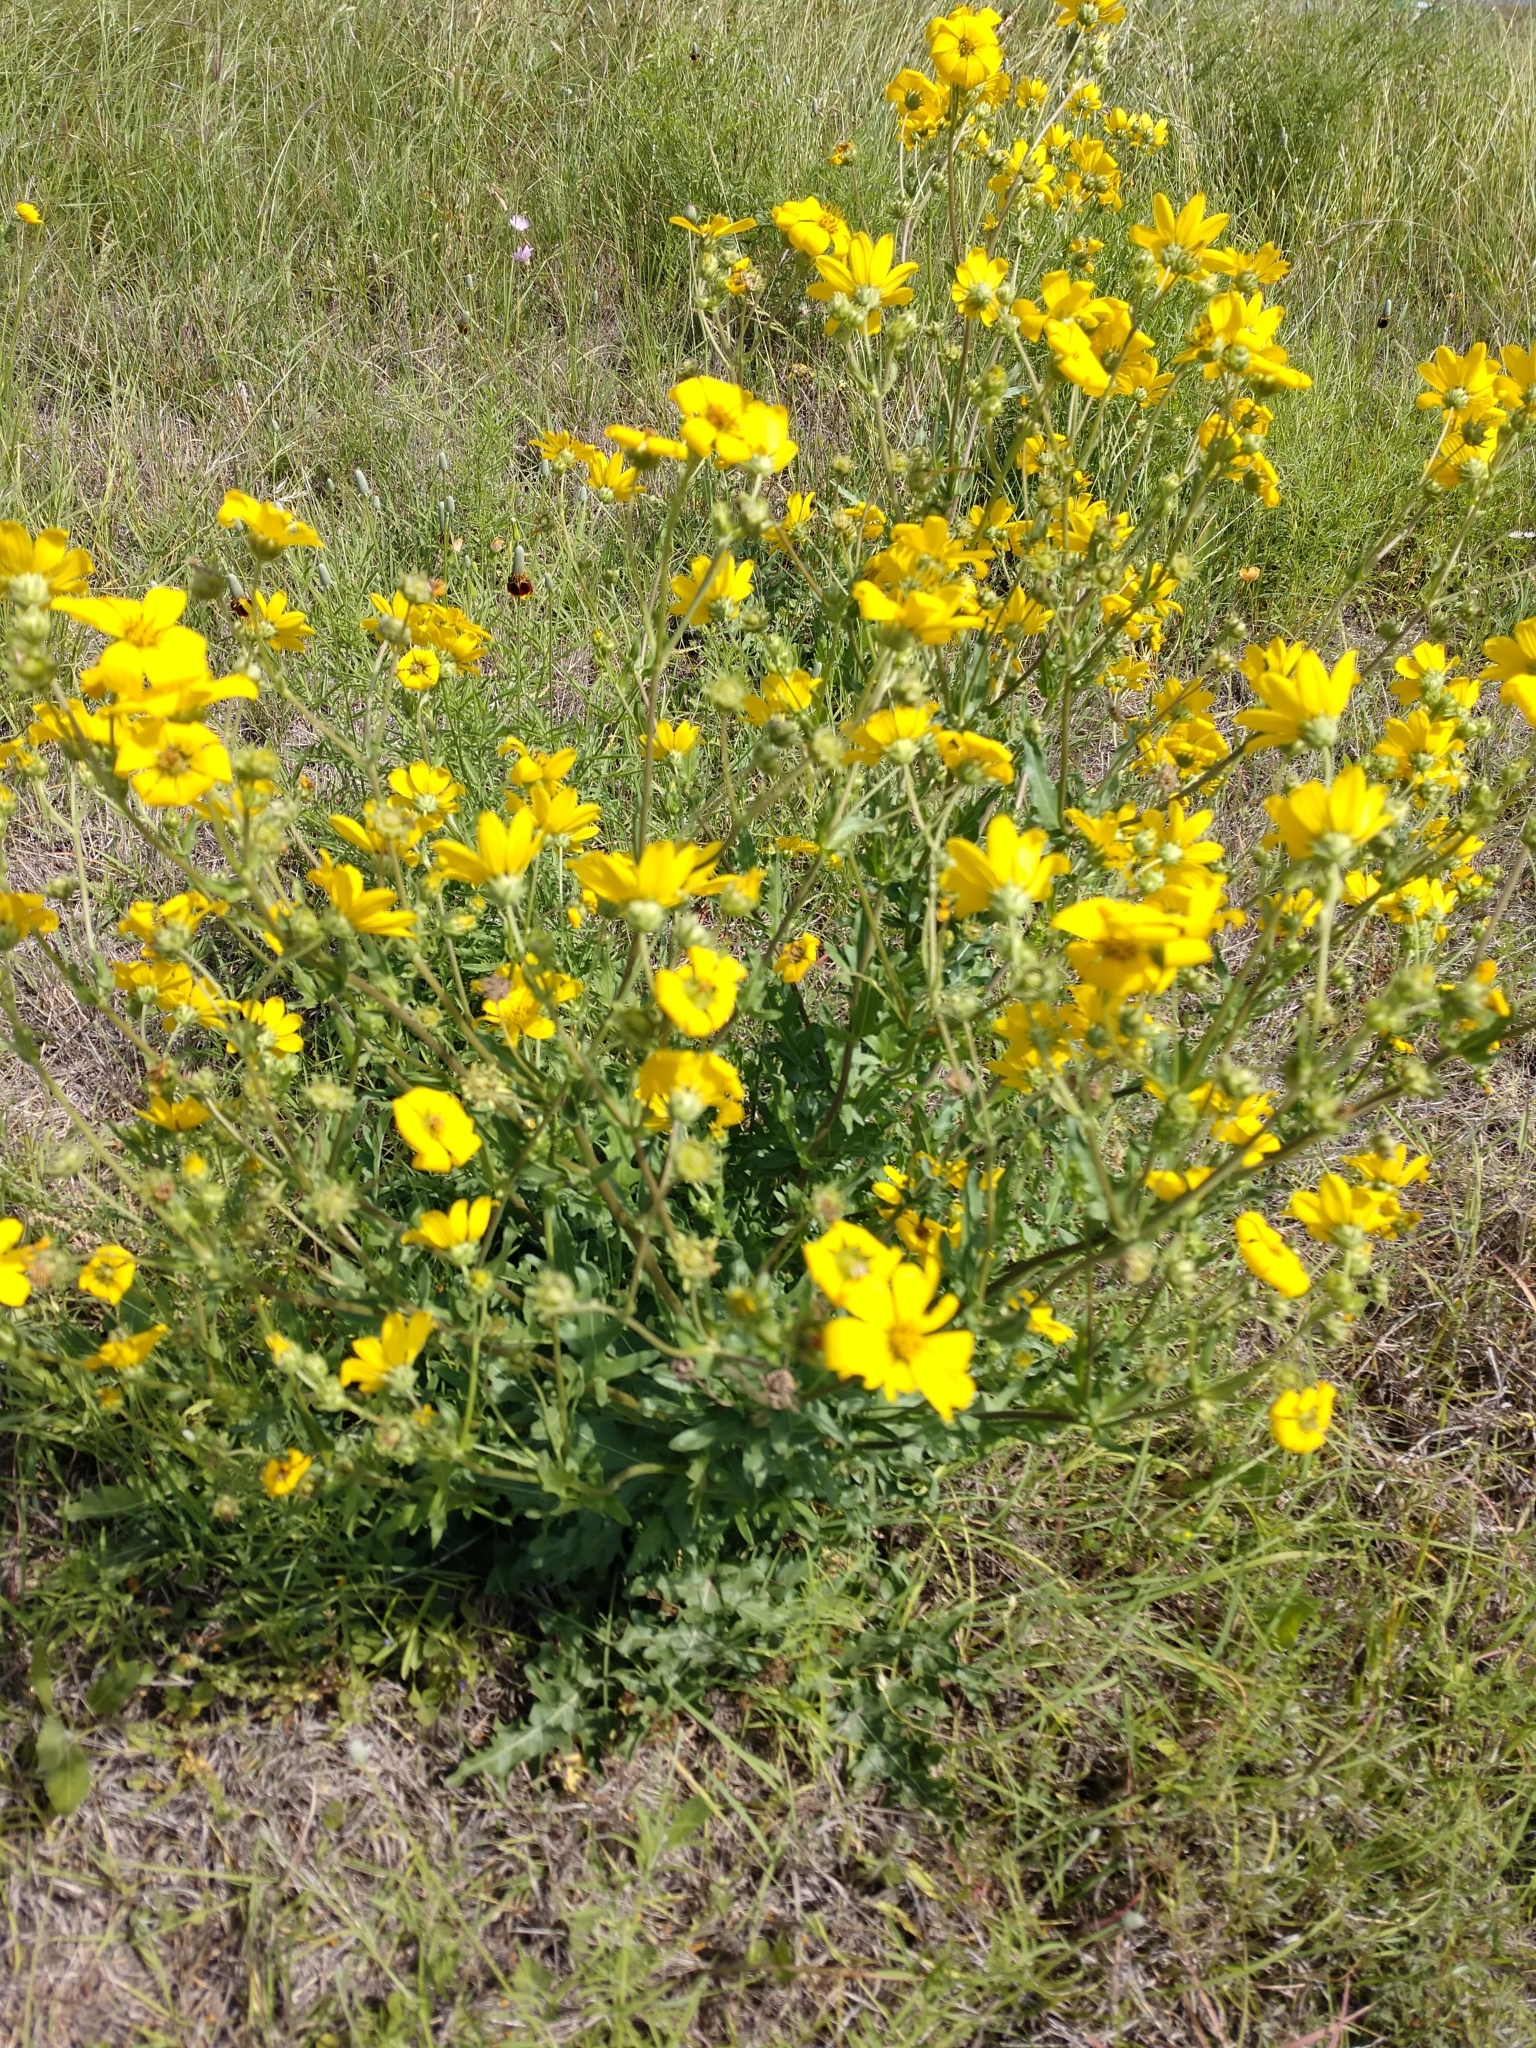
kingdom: Plantae
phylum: Tracheophyta
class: Magnoliopsida
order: Asterales
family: Asteraceae
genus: Engelmannia
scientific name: Engelmannia peristenia
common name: Engelmann's daisy
